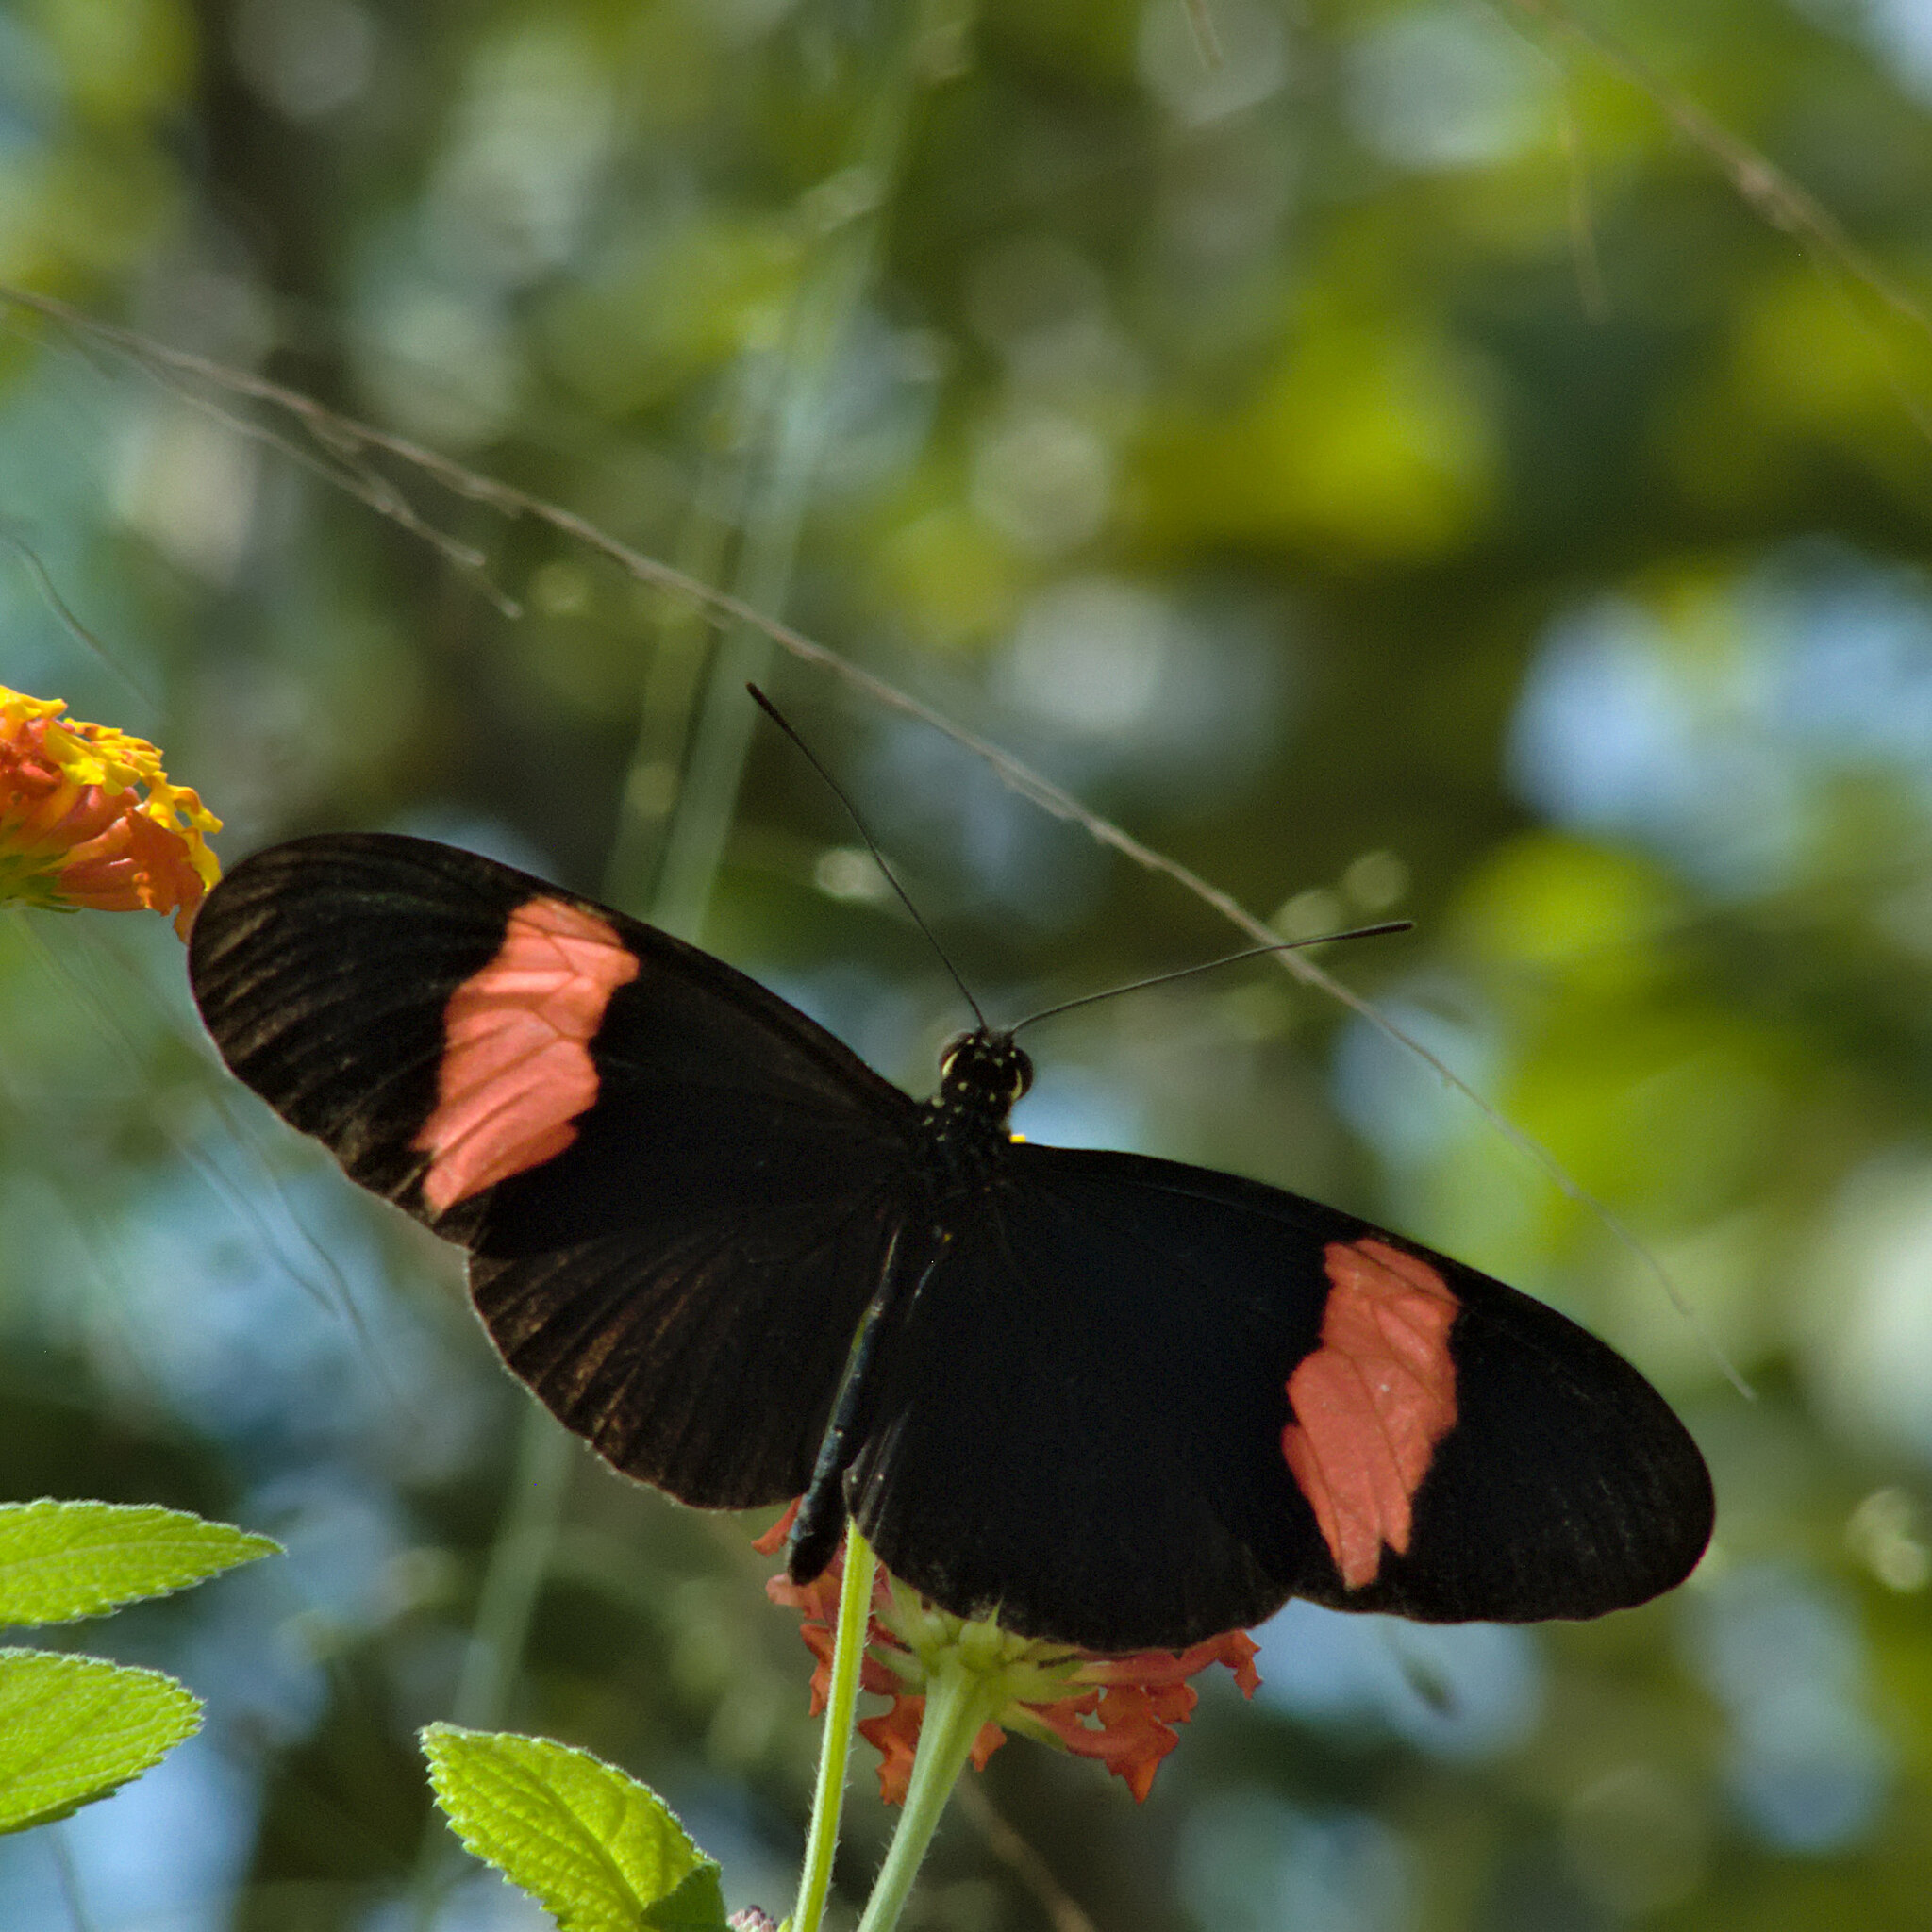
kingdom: Animalia
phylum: Arthropoda
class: Insecta
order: Lepidoptera
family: Nymphalidae
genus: Heliconius
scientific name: Heliconius erato
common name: Common patch longwing
